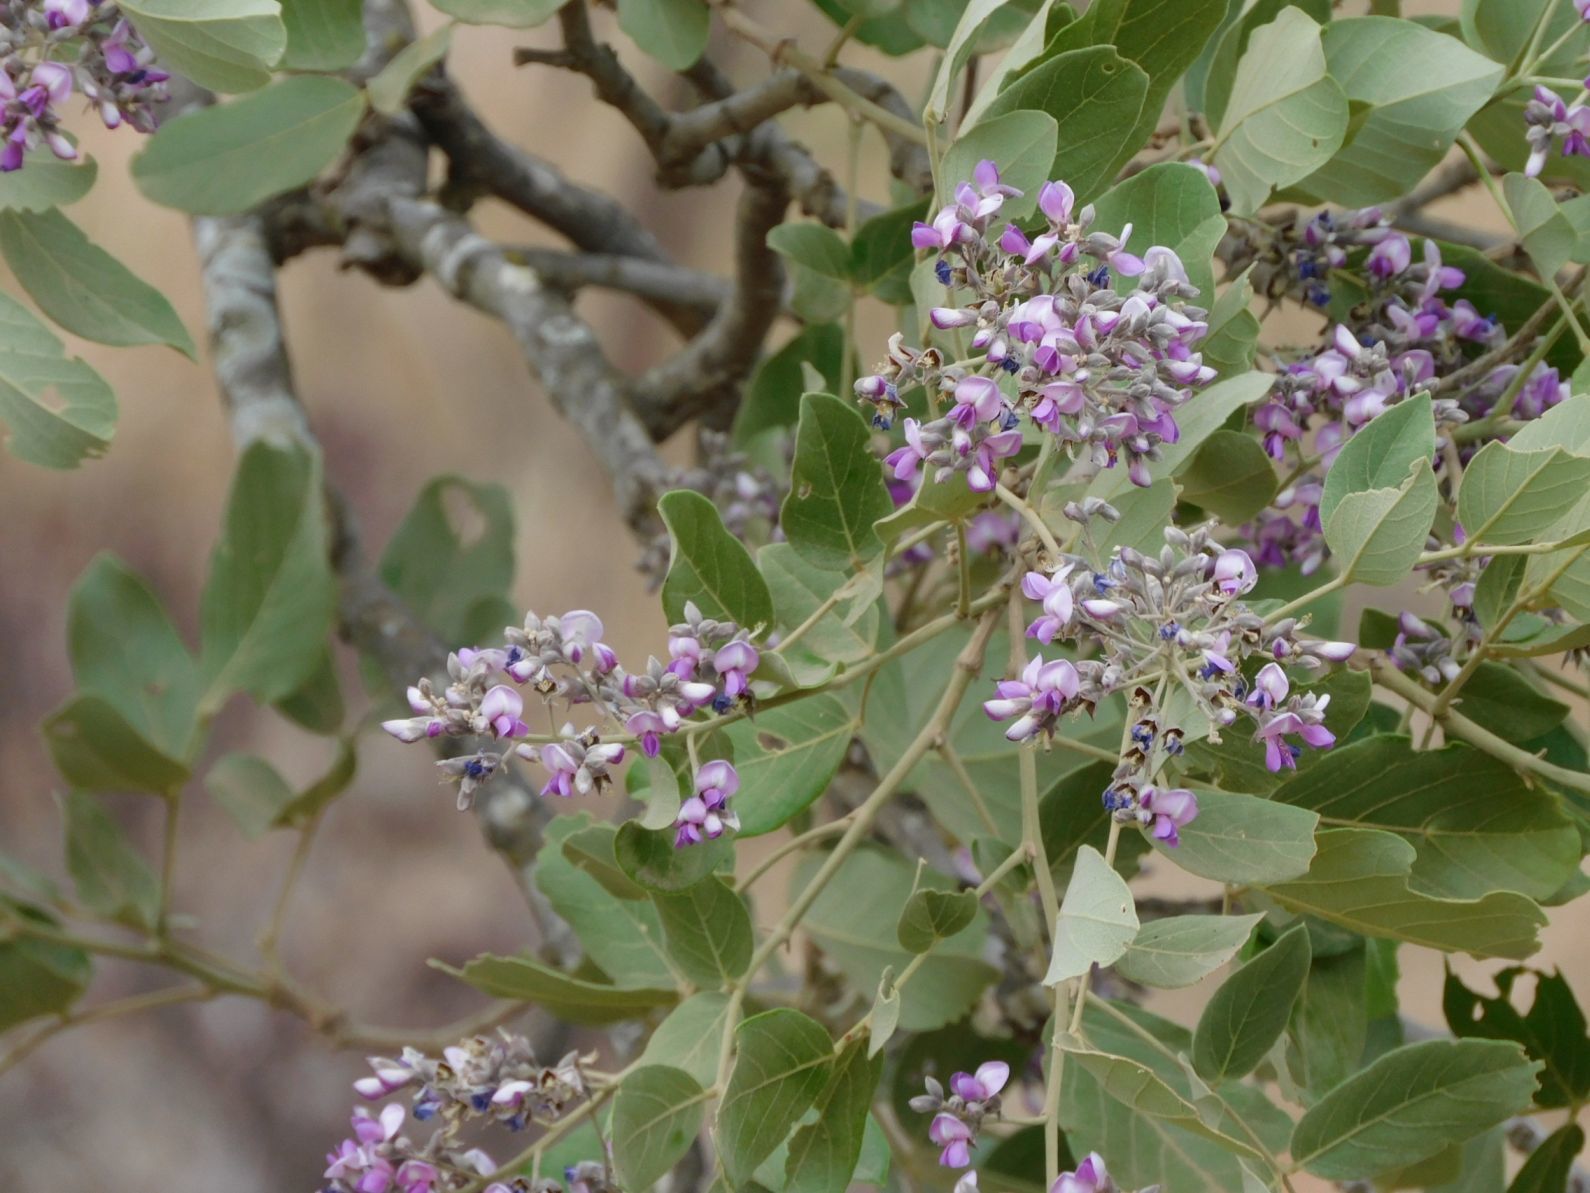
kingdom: Plantae
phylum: Tracheophyta
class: Magnoliopsida
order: Fabales
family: Fabaceae
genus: Philenoptera
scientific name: Philenoptera violacea
